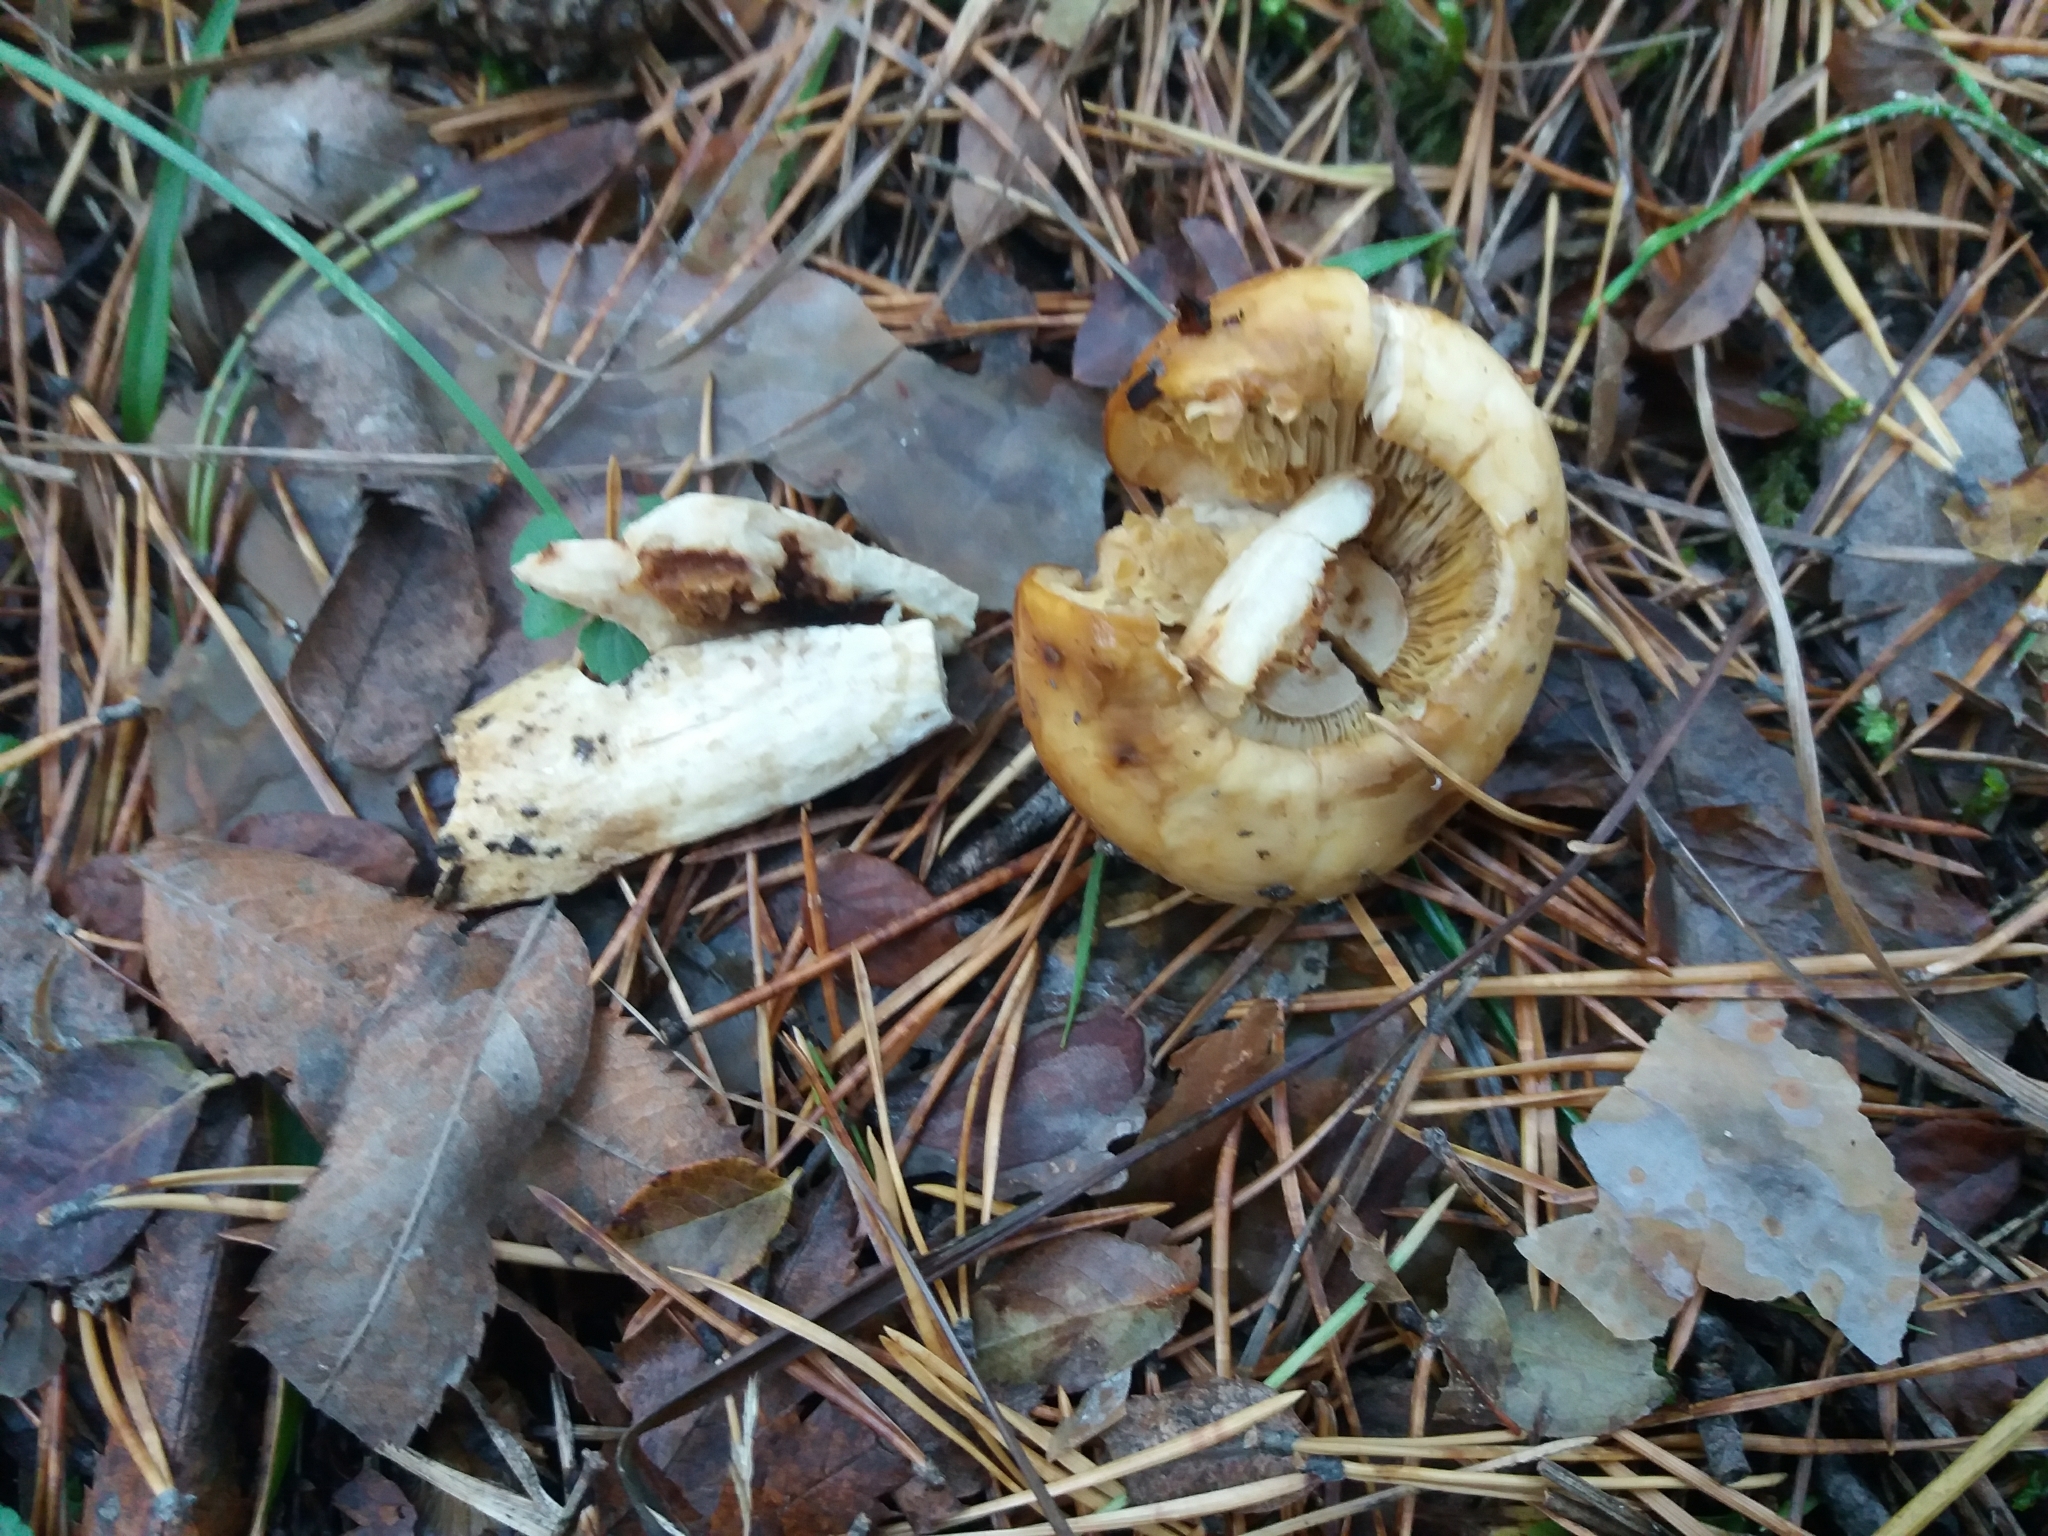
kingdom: Fungi
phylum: Basidiomycota
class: Agaricomycetes
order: Russulales
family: Russulaceae
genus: Russula
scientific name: Russula foetens
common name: Foetid russula
